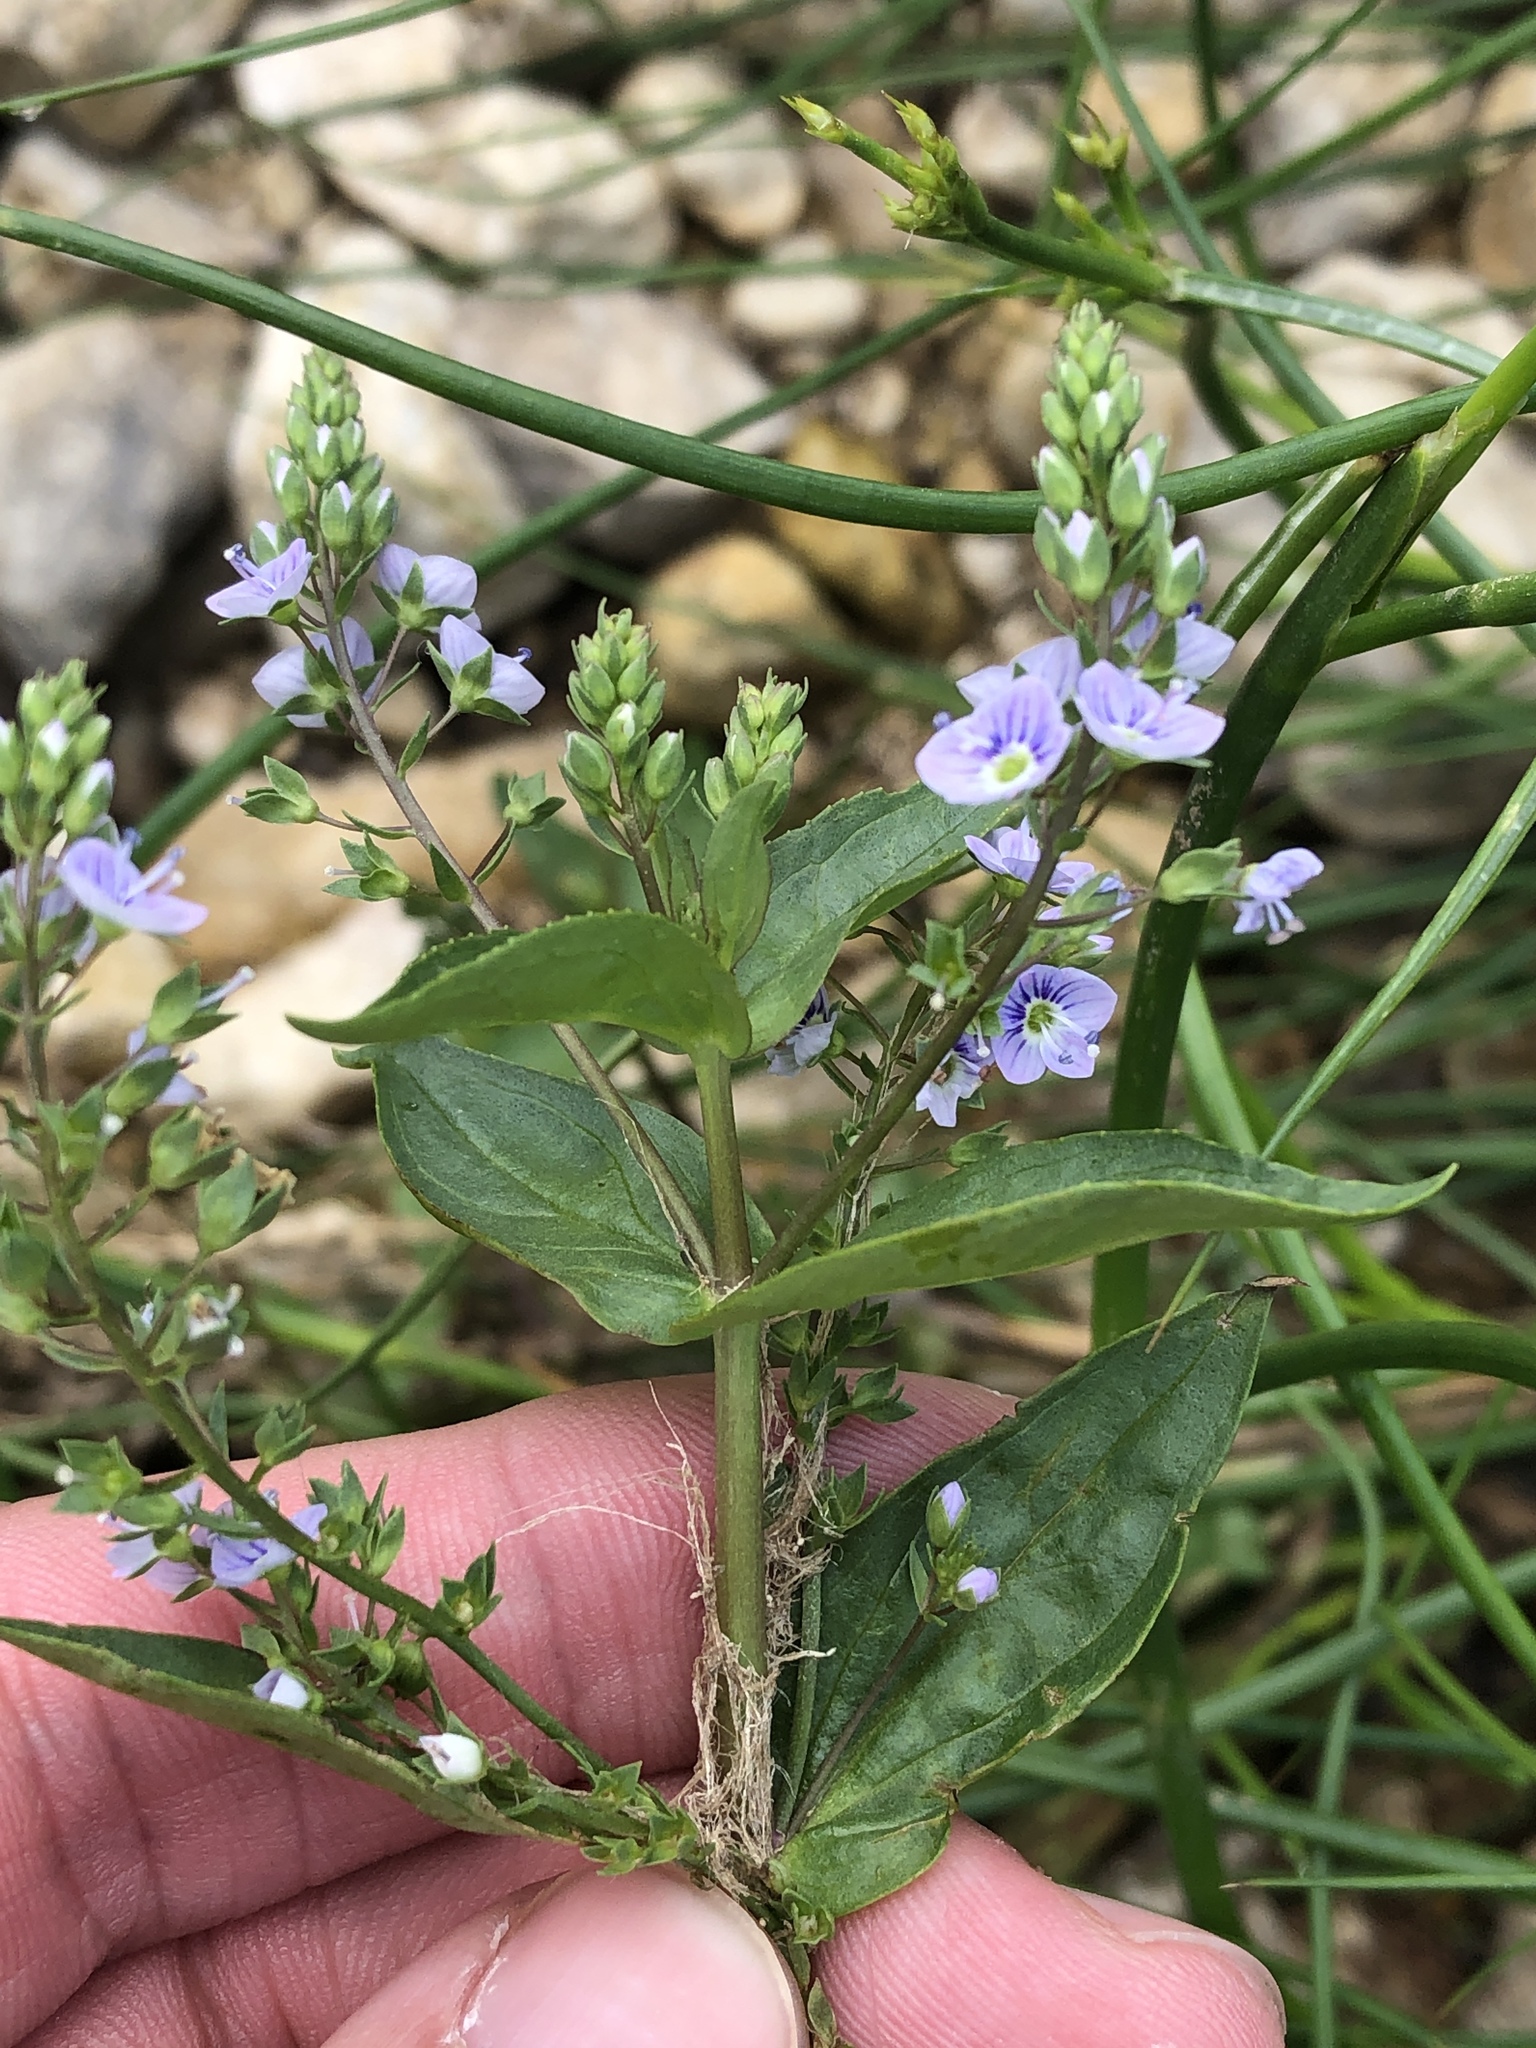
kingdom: Plantae
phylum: Tracheophyta
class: Magnoliopsida
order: Lamiales
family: Plantaginaceae
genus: Veronica
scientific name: Veronica anagallis-aquatica
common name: Water speedwell
